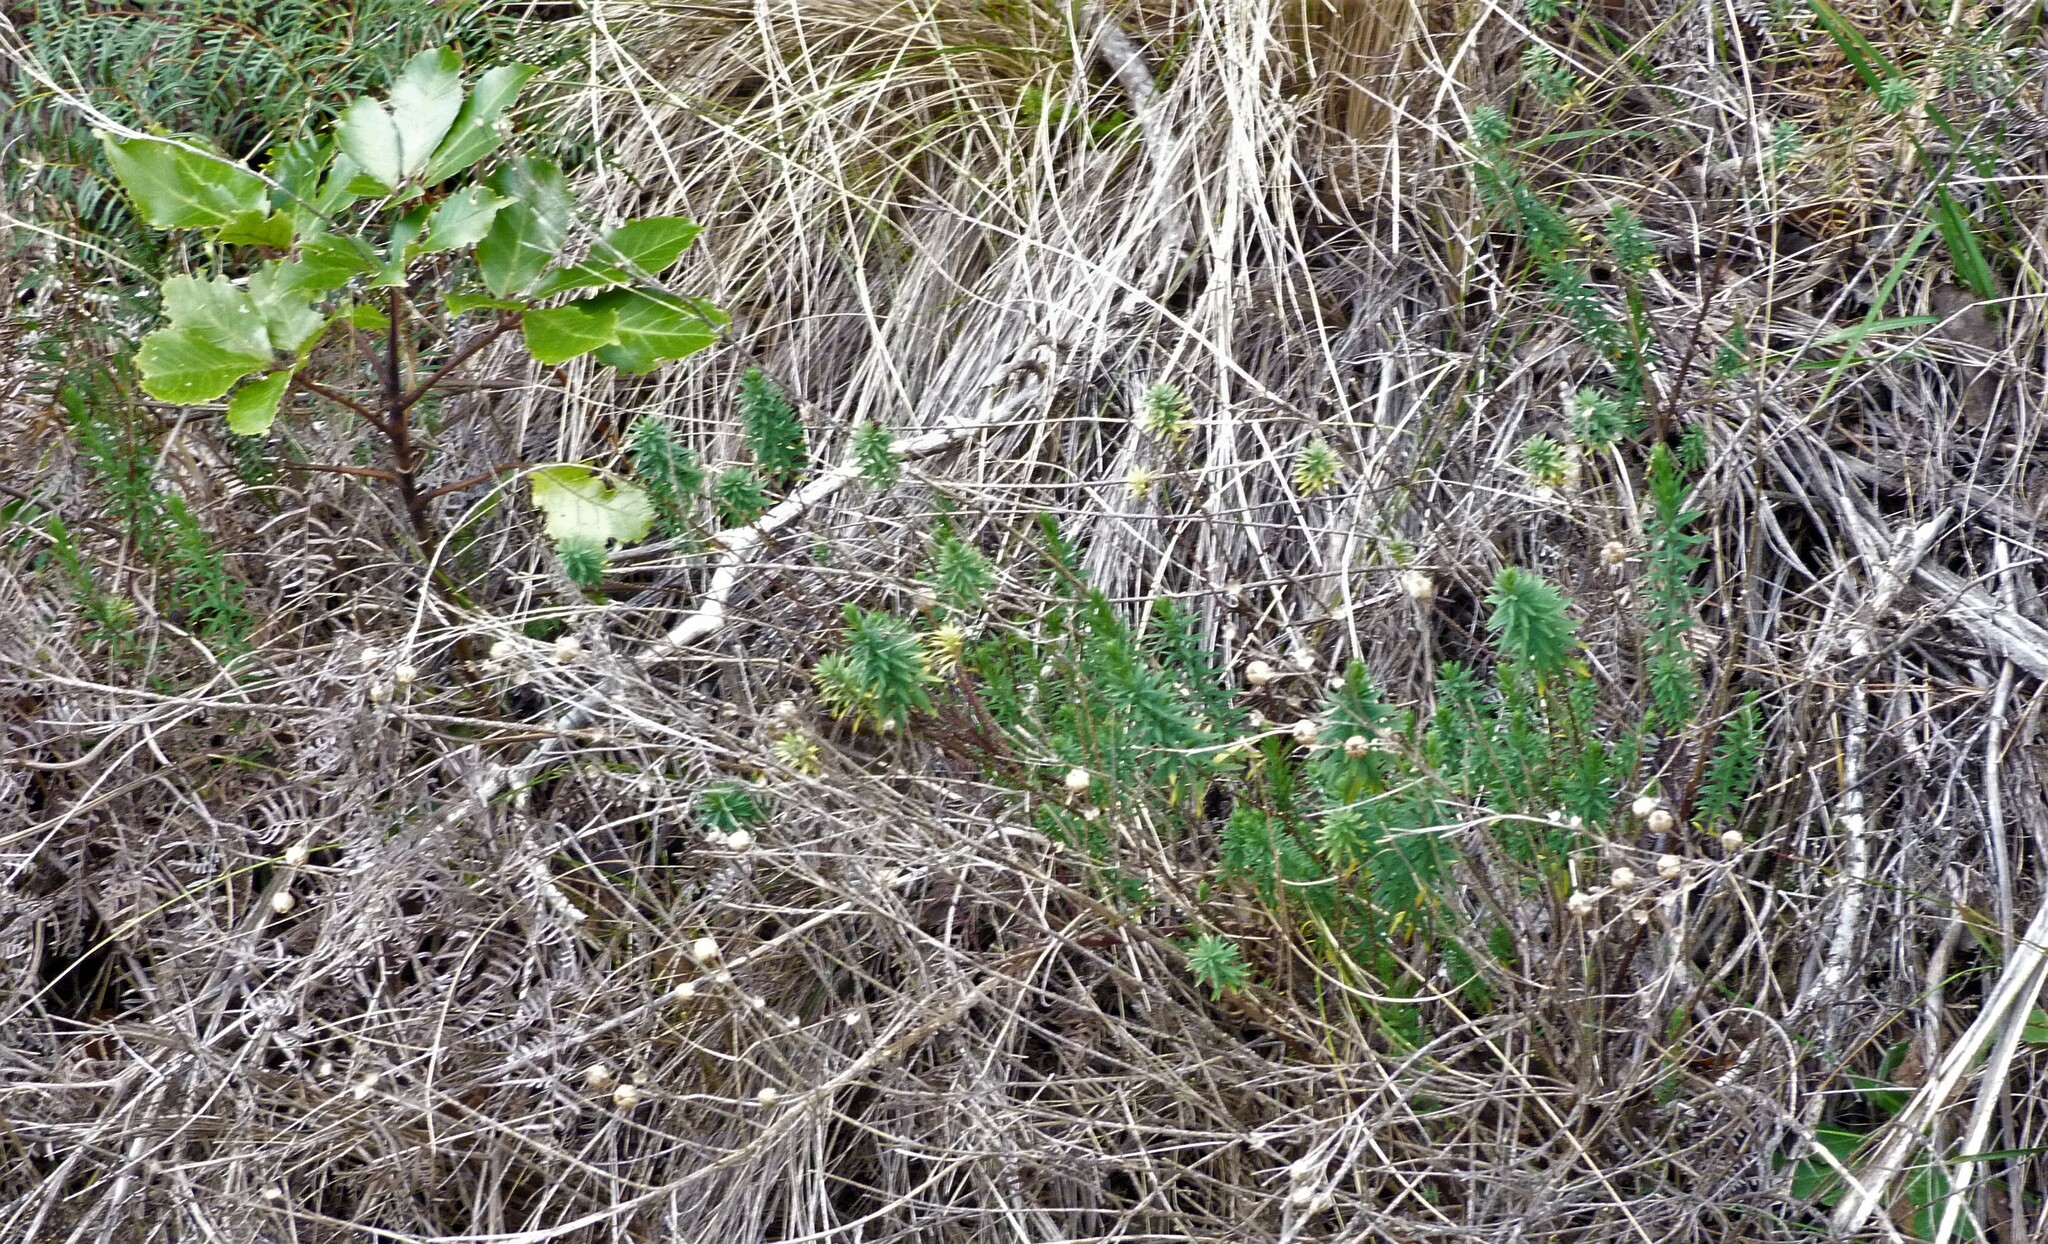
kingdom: Plantae
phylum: Tracheophyta
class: Magnoliopsida
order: Malpighiales
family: Linaceae
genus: Linum
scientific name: Linum monogynum
